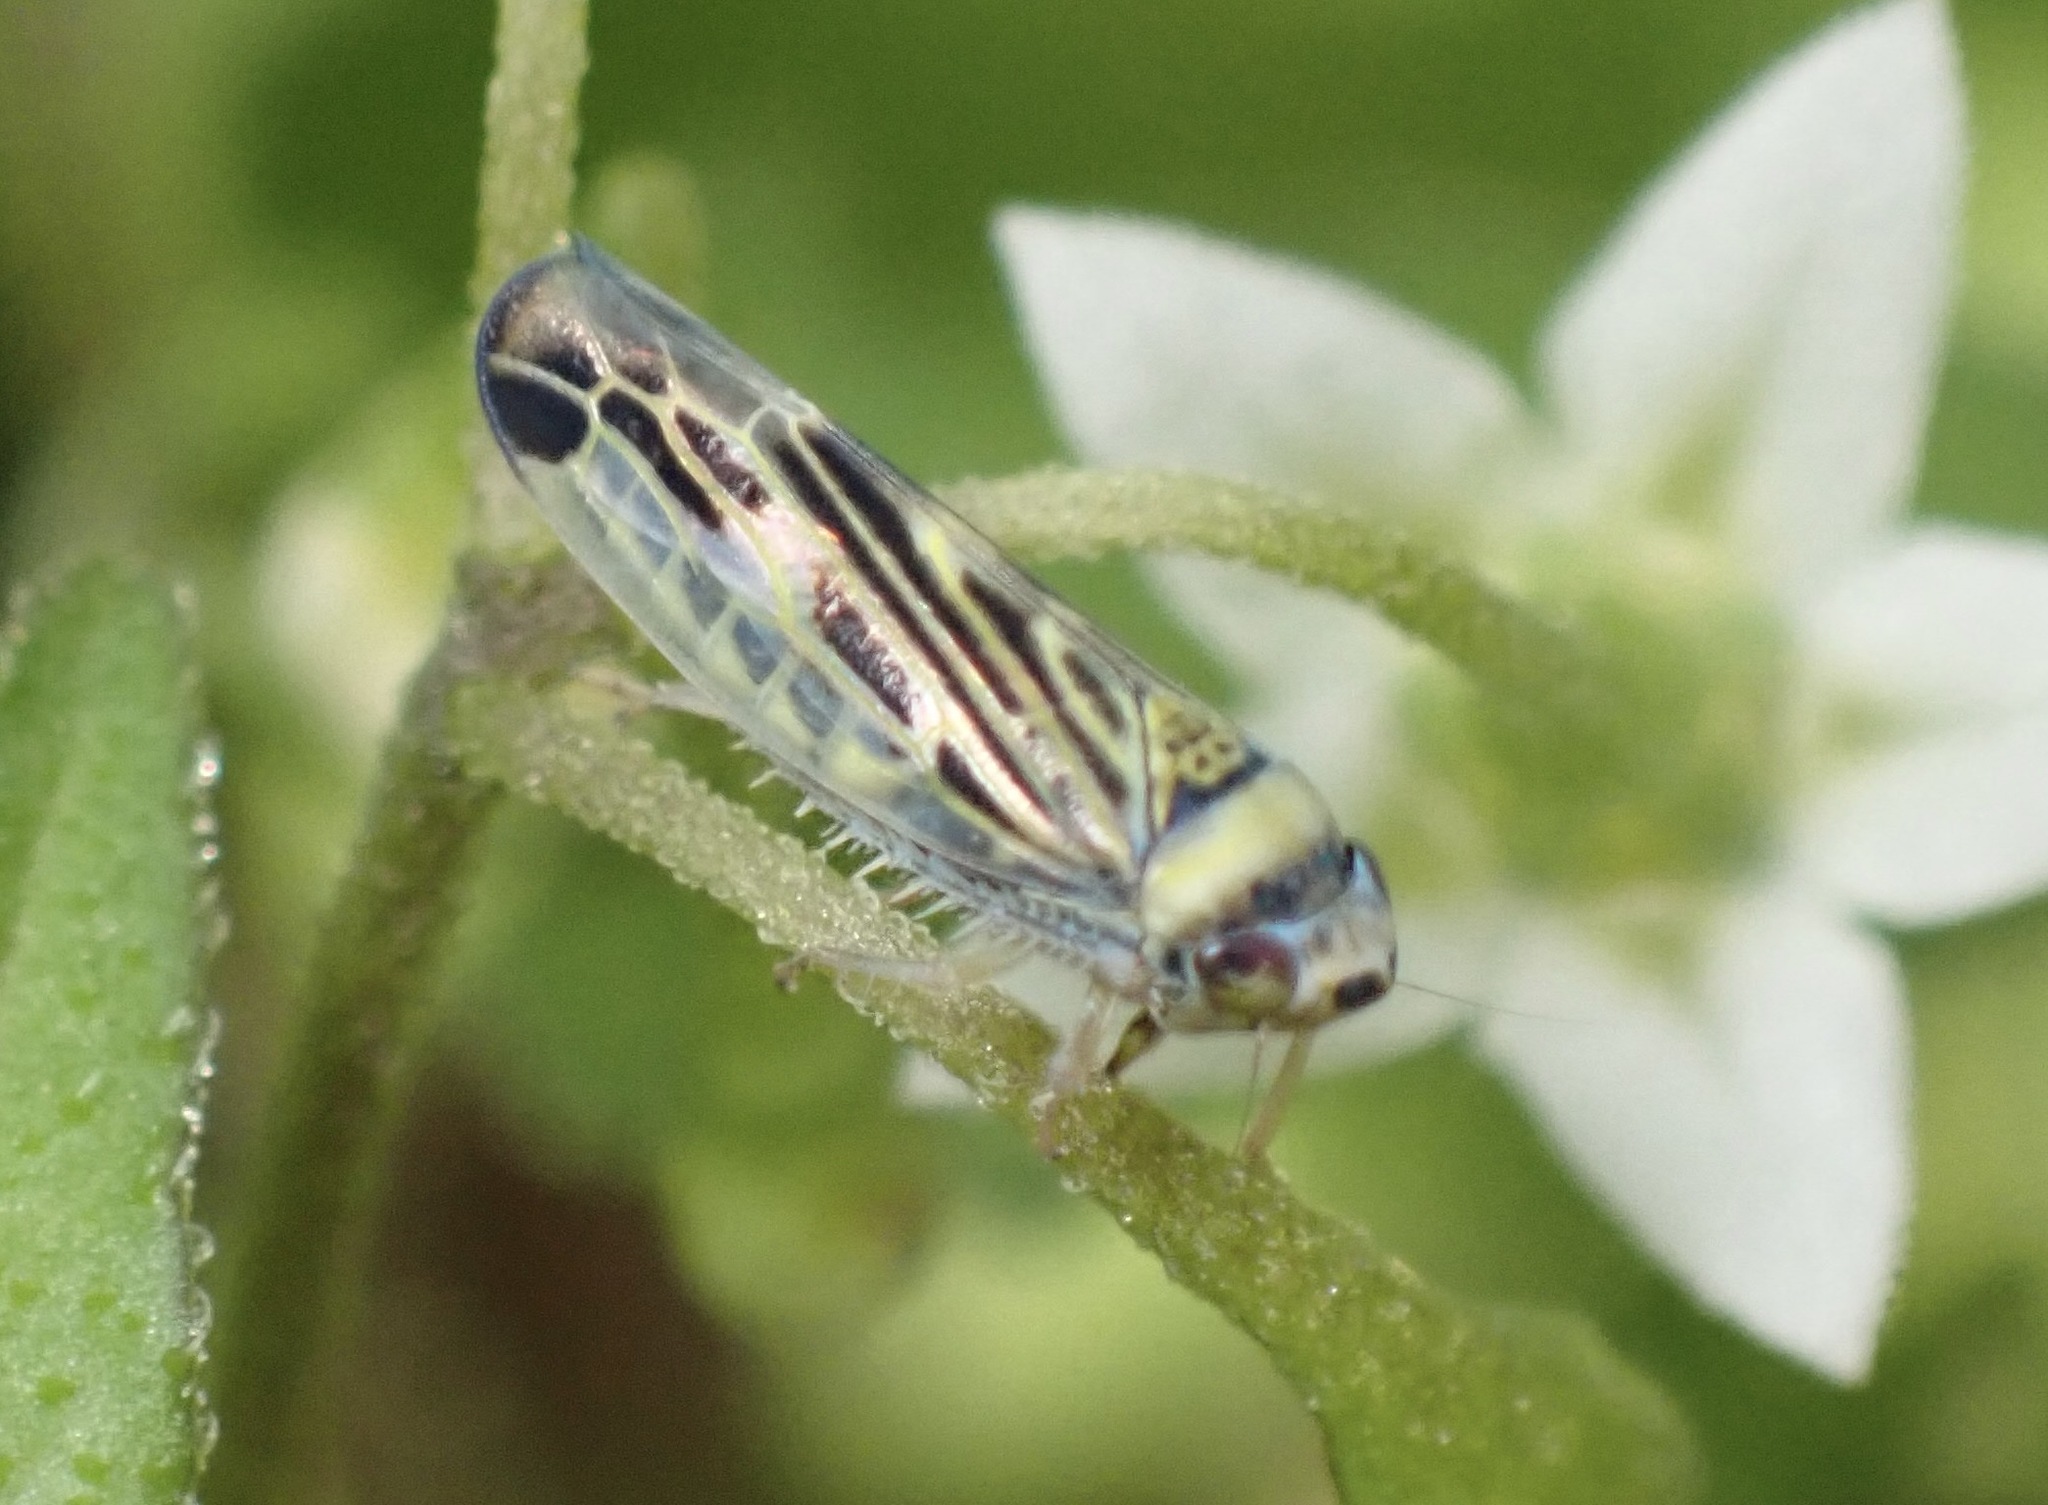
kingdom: Animalia
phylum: Arthropoda
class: Insecta
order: Hemiptera
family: Cicadellidae
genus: Colladonus
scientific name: Colladonus mendicus
